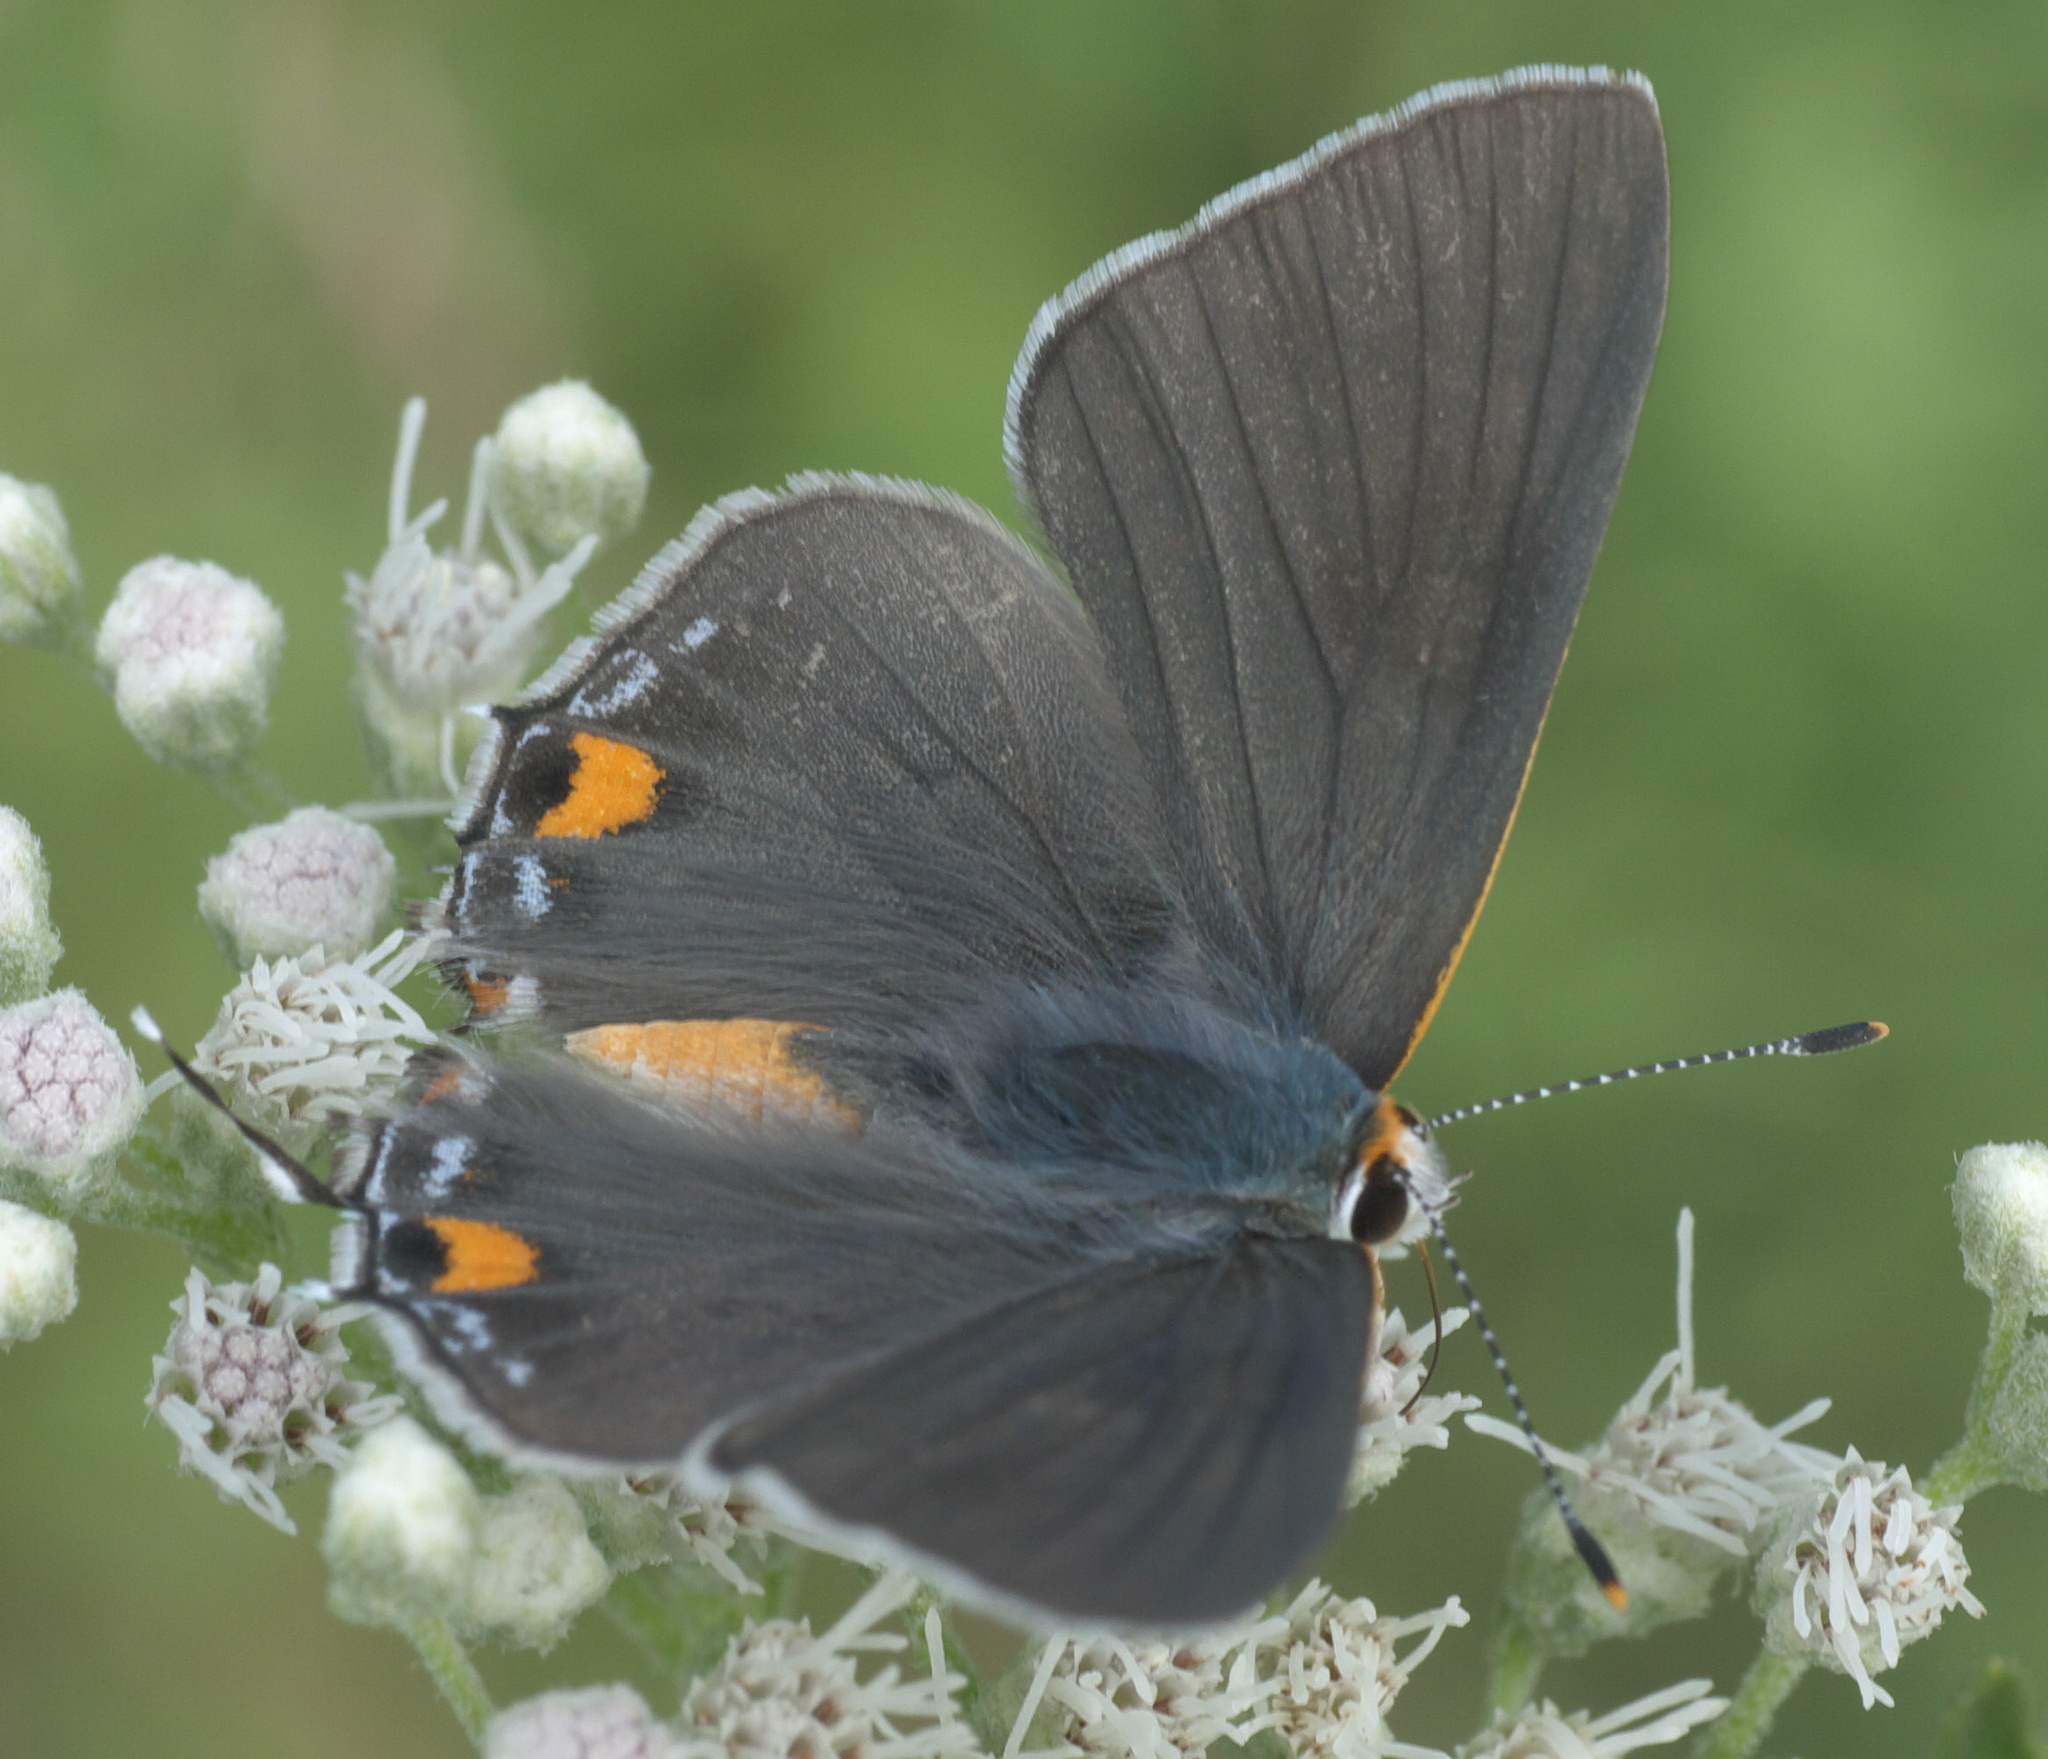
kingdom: Animalia
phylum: Arthropoda
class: Insecta
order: Lepidoptera
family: Lycaenidae
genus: Strymon
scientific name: Strymon melinus
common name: Gray hairstreak
